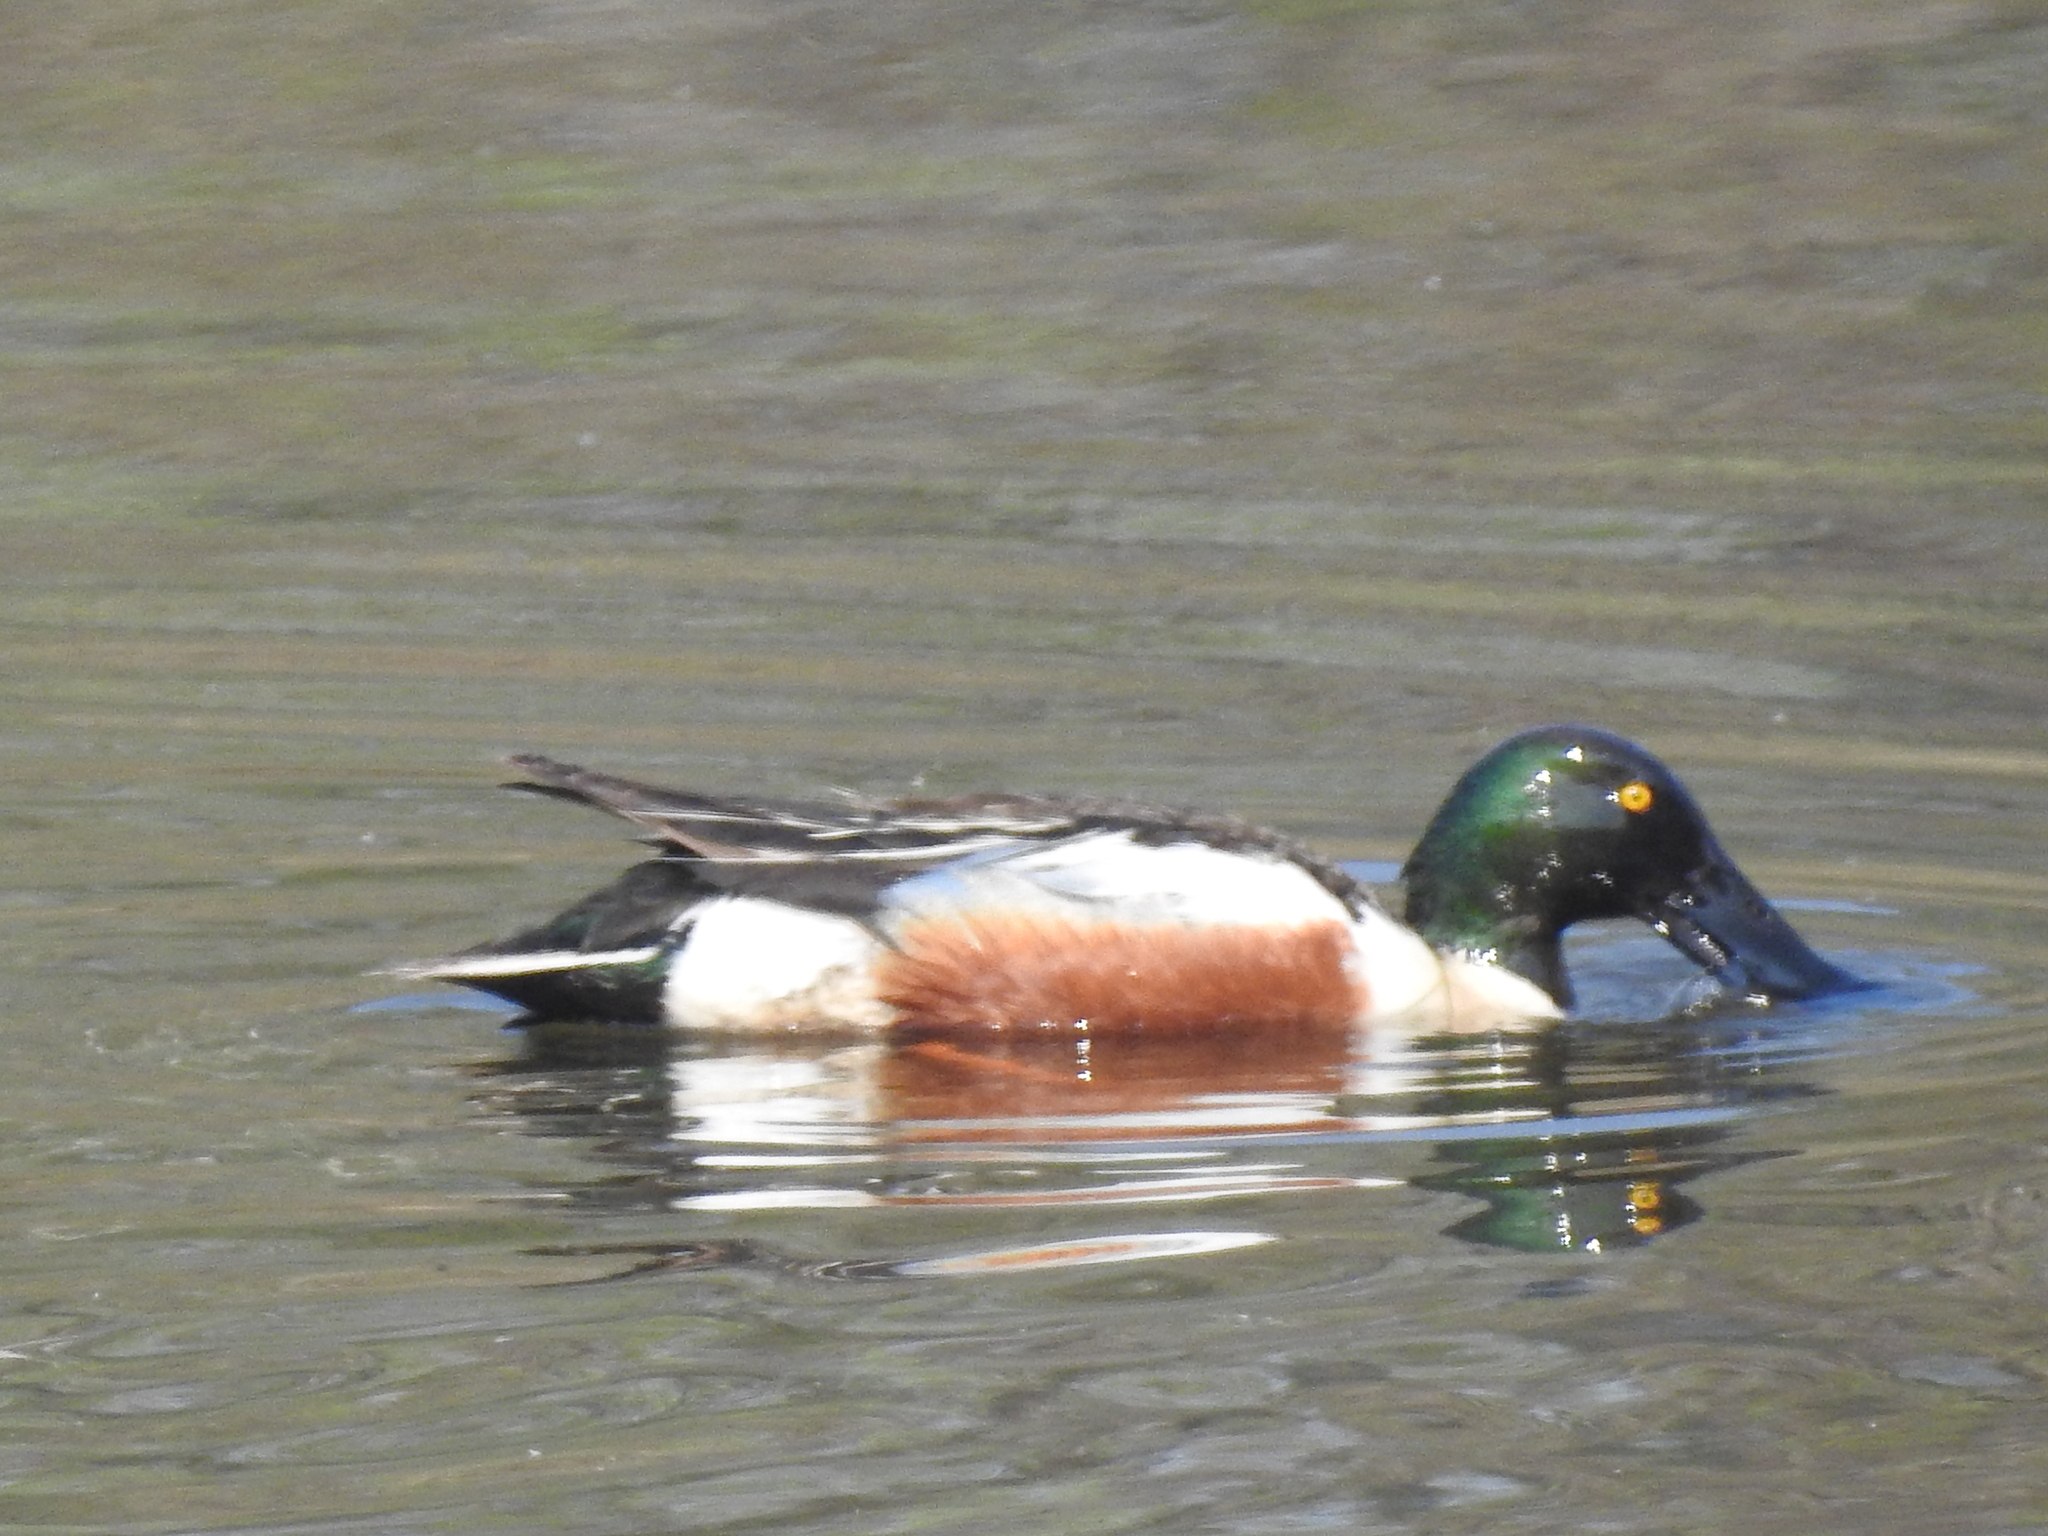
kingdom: Animalia
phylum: Chordata
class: Aves
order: Anseriformes
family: Anatidae
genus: Spatula
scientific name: Spatula clypeata
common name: Northern shoveler
